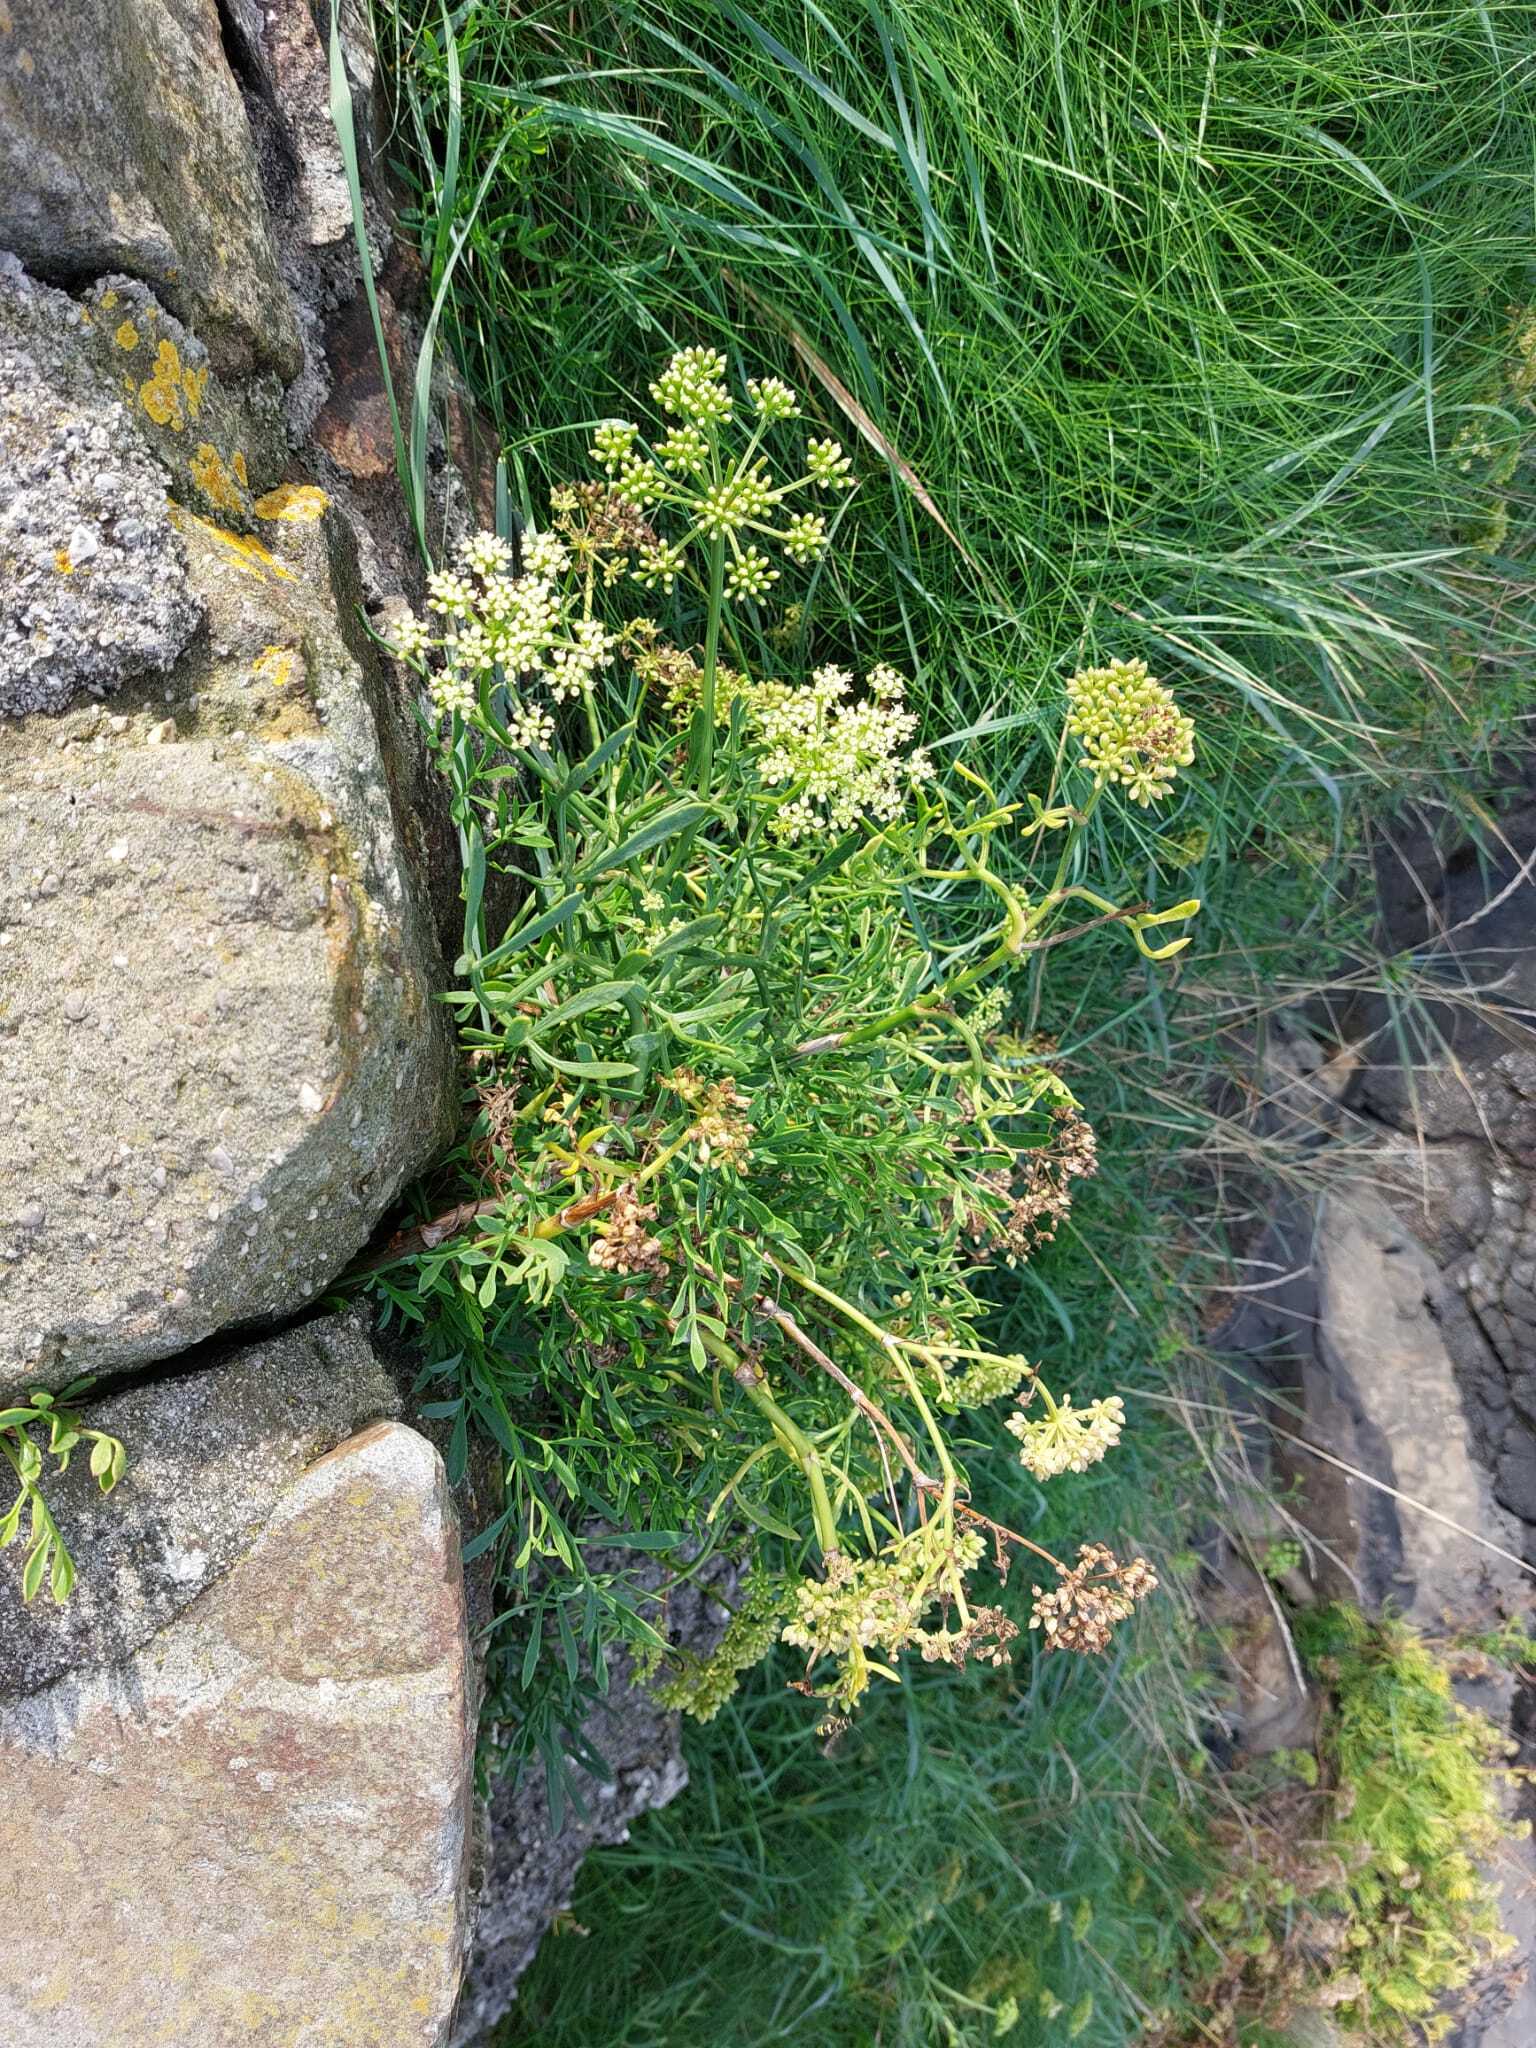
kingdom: Plantae
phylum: Tracheophyta
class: Magnoliopsida
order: Apiales
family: Apiaceae
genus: Crithmum
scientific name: Crithmum maritimum
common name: Rock samphire
